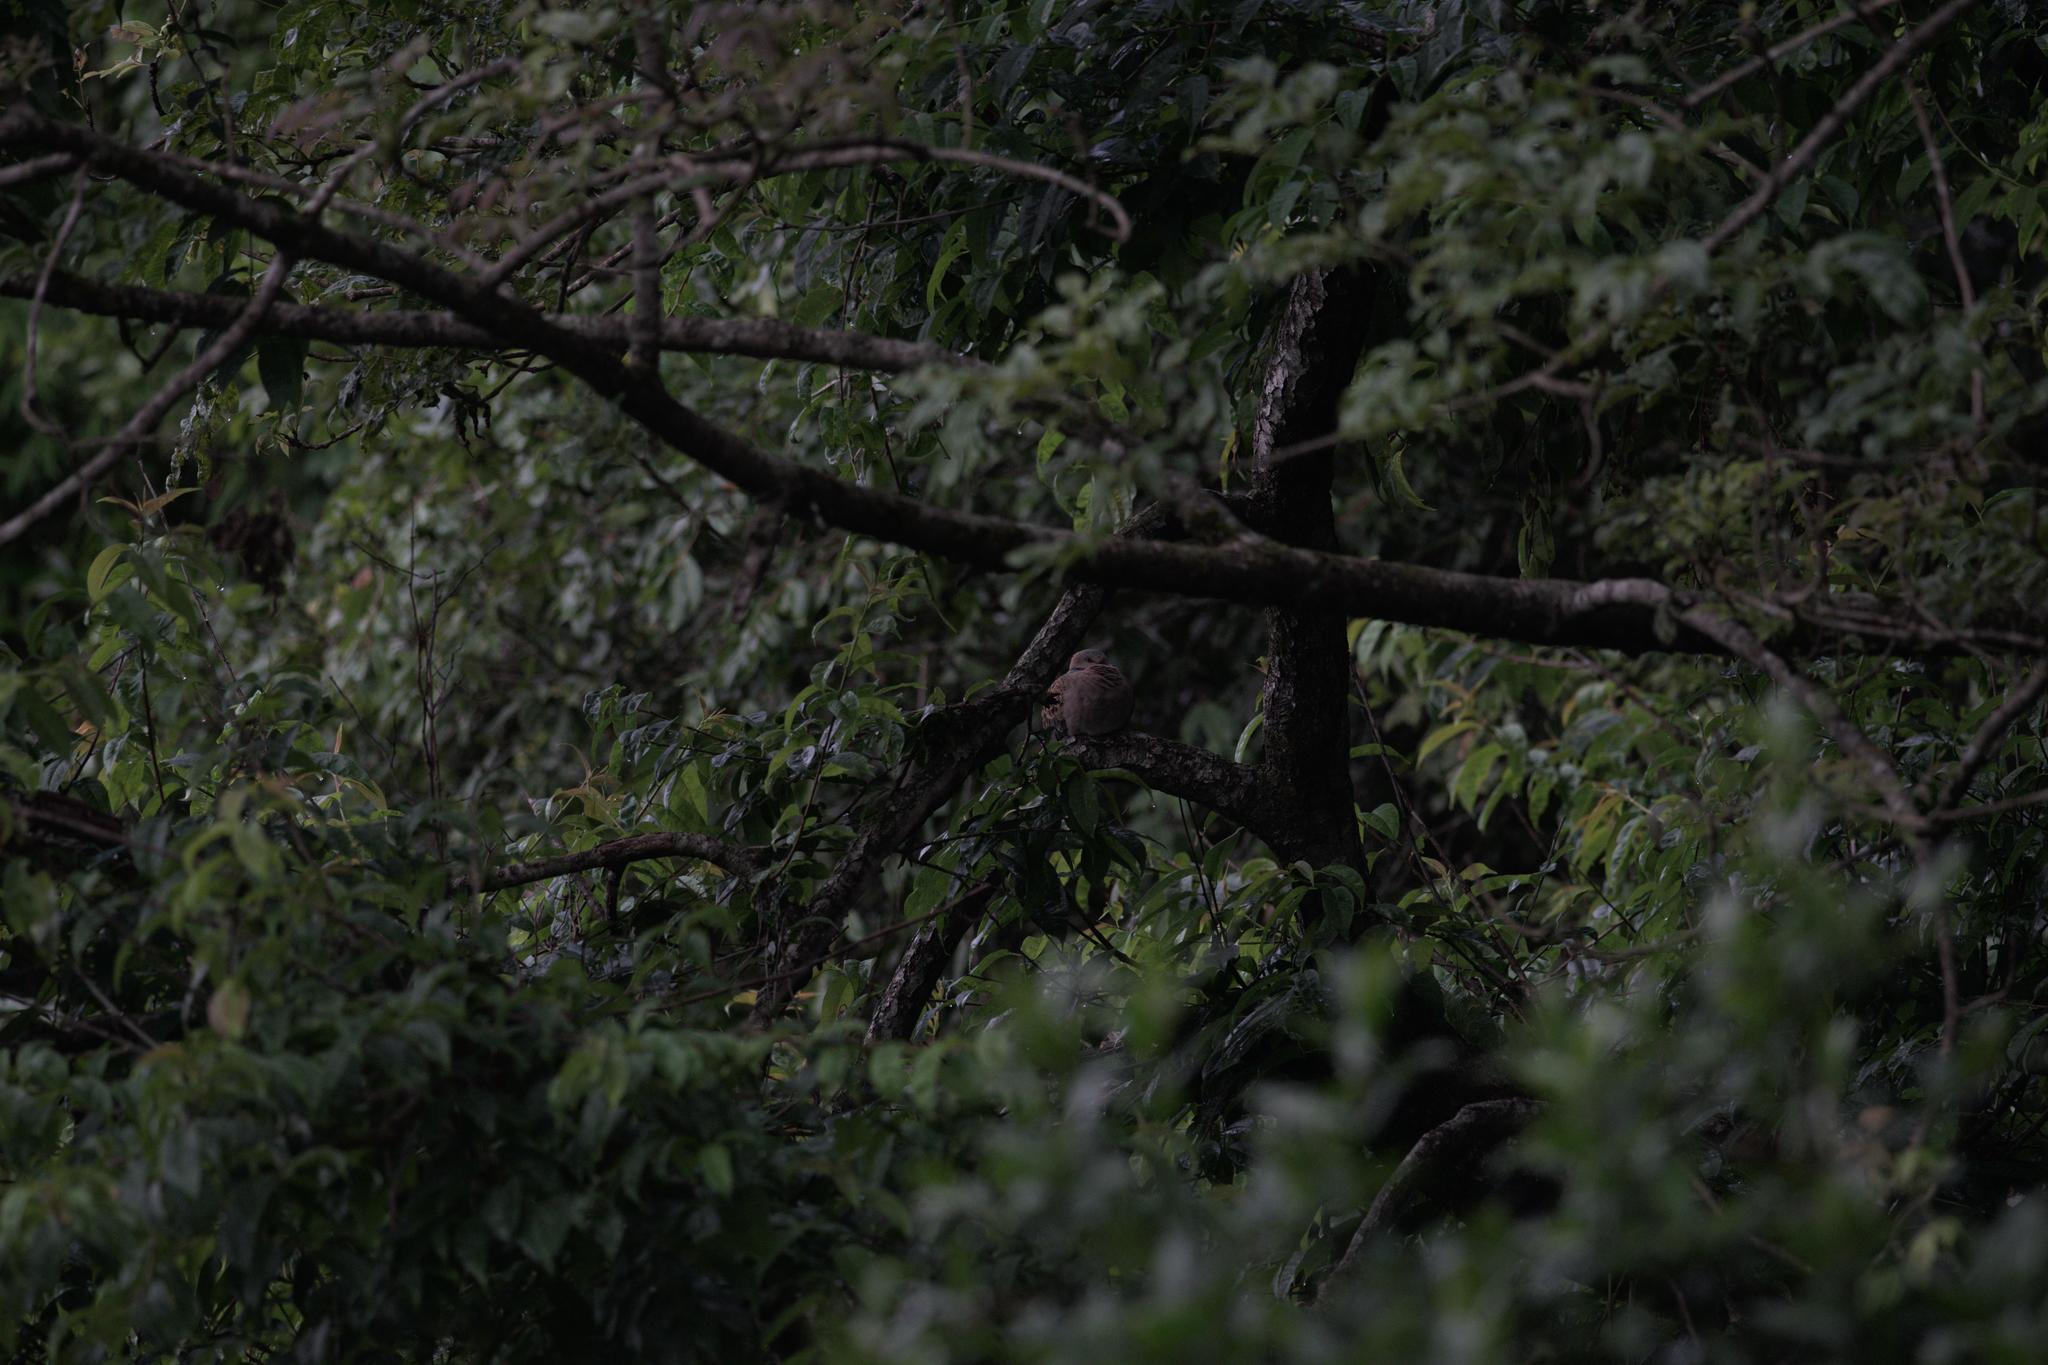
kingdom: Animalia
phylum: Chordata
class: Aves
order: Columbiformes
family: Columbidae
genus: Streptopelia
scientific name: Streptopelia orientalis
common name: Oriental turtle dove
